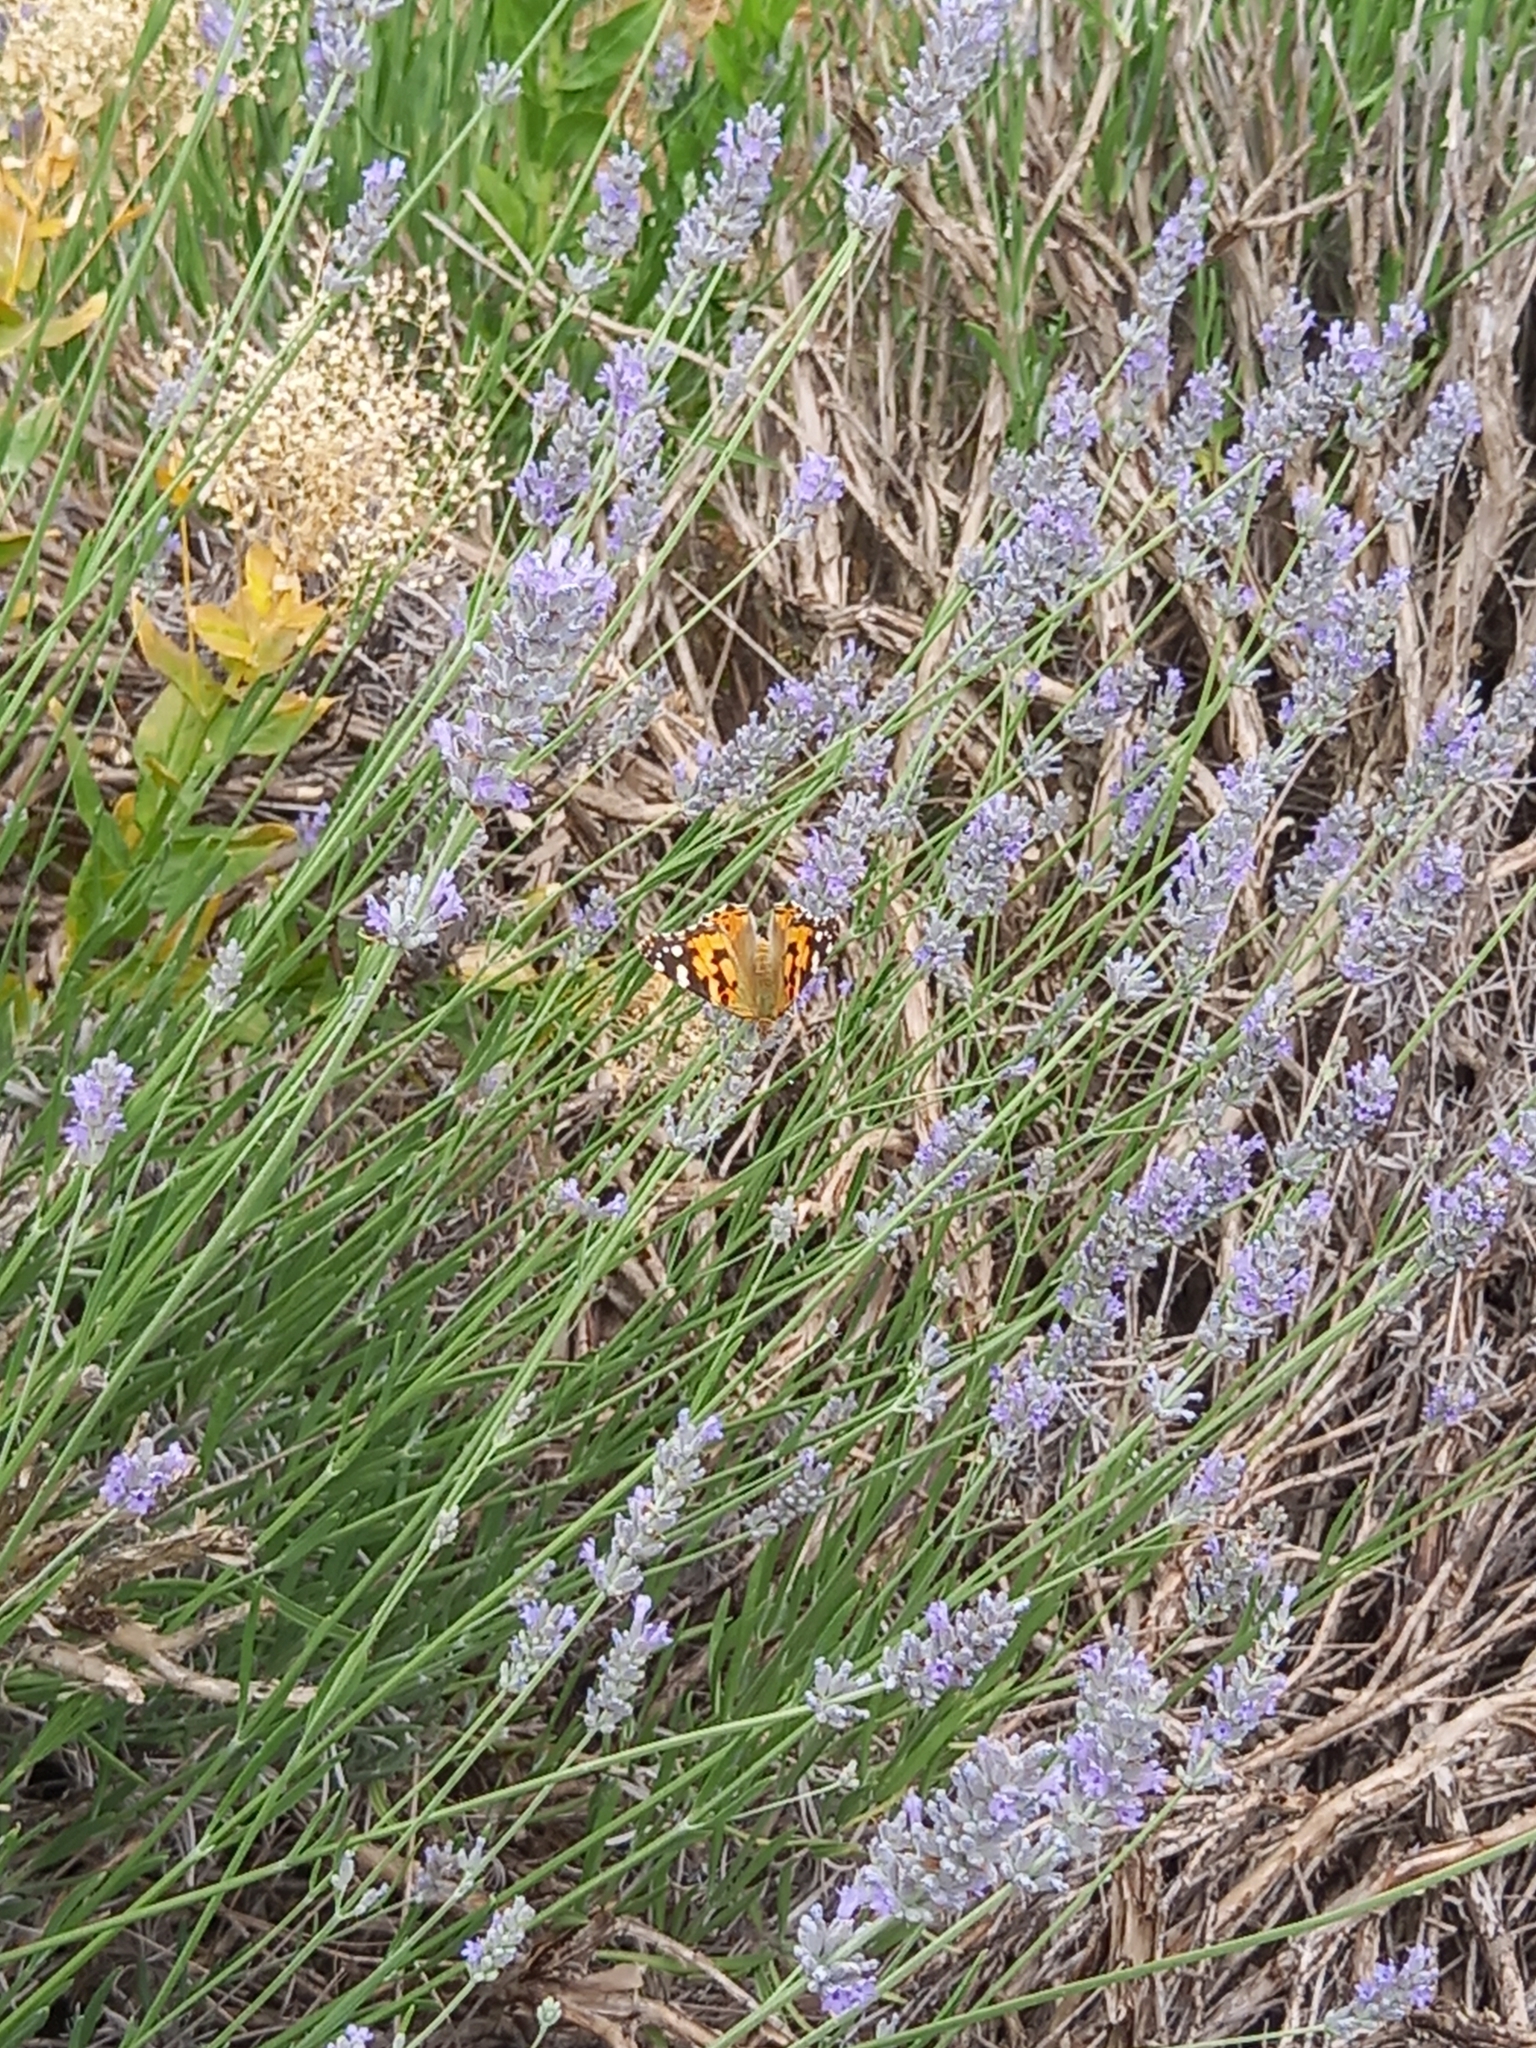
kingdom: Animalia
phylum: Arthropoda
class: Insecta
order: Lepidoptera
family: Nymphalidae
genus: Vanessa
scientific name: Vanessa cardui
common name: Painted lady
